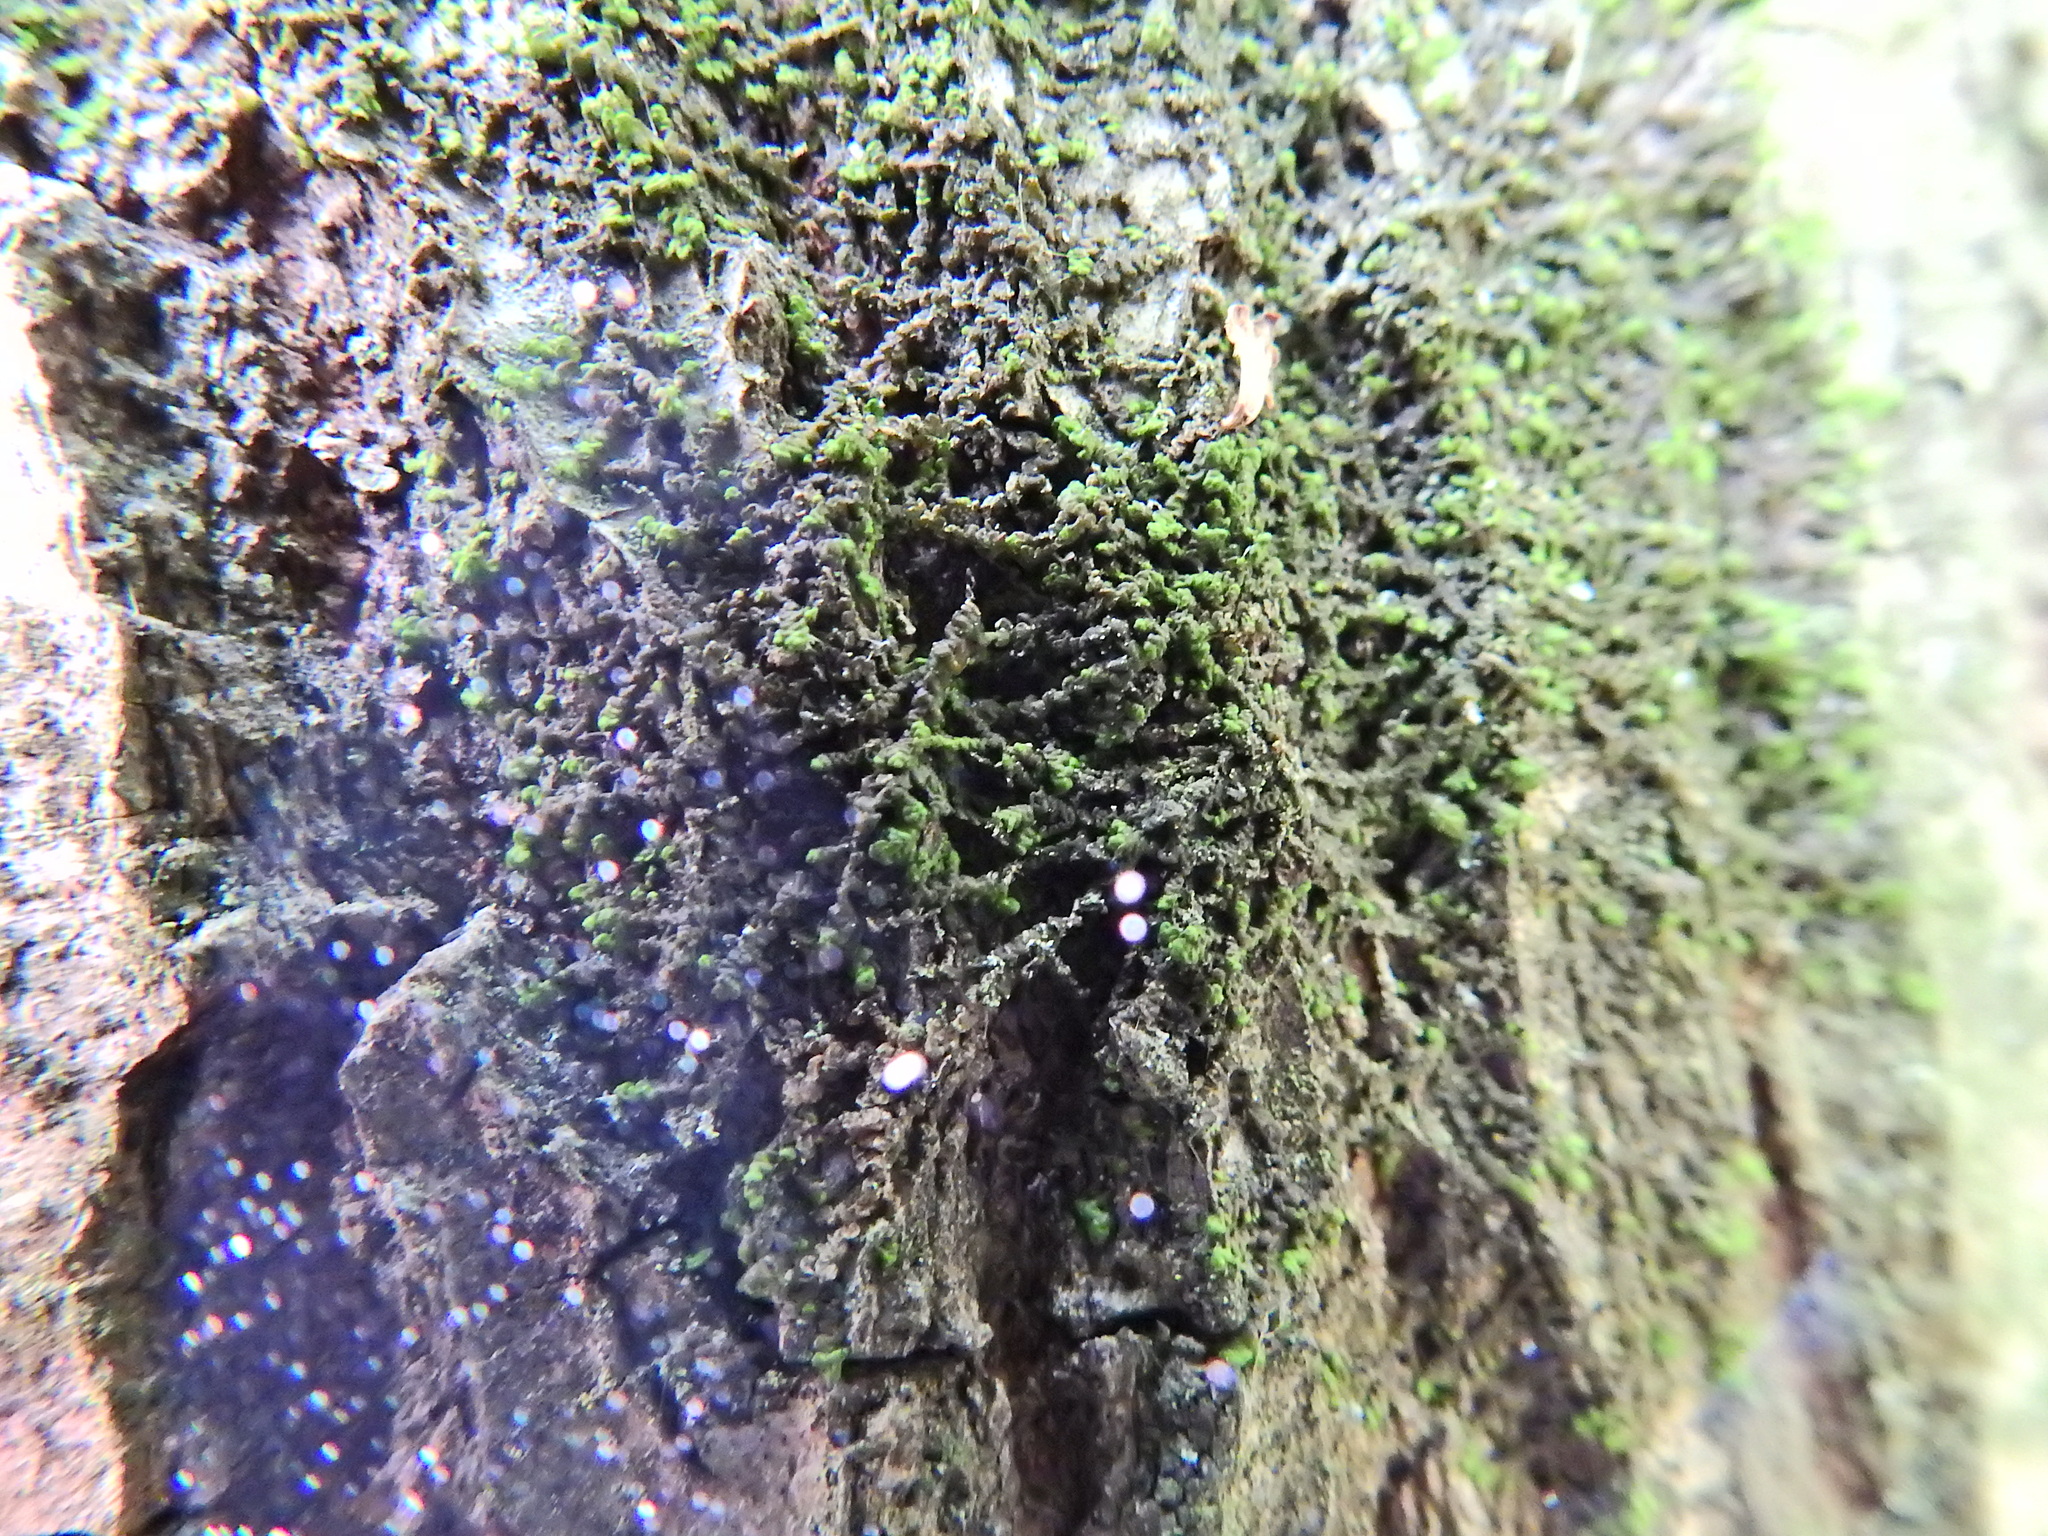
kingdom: Plantae
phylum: Marchantiophyta
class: Jungermanniopsida
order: Porellales
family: Frullaniaceae
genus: Frullania
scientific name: Frullania dilatata
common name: Dilated scalewort
